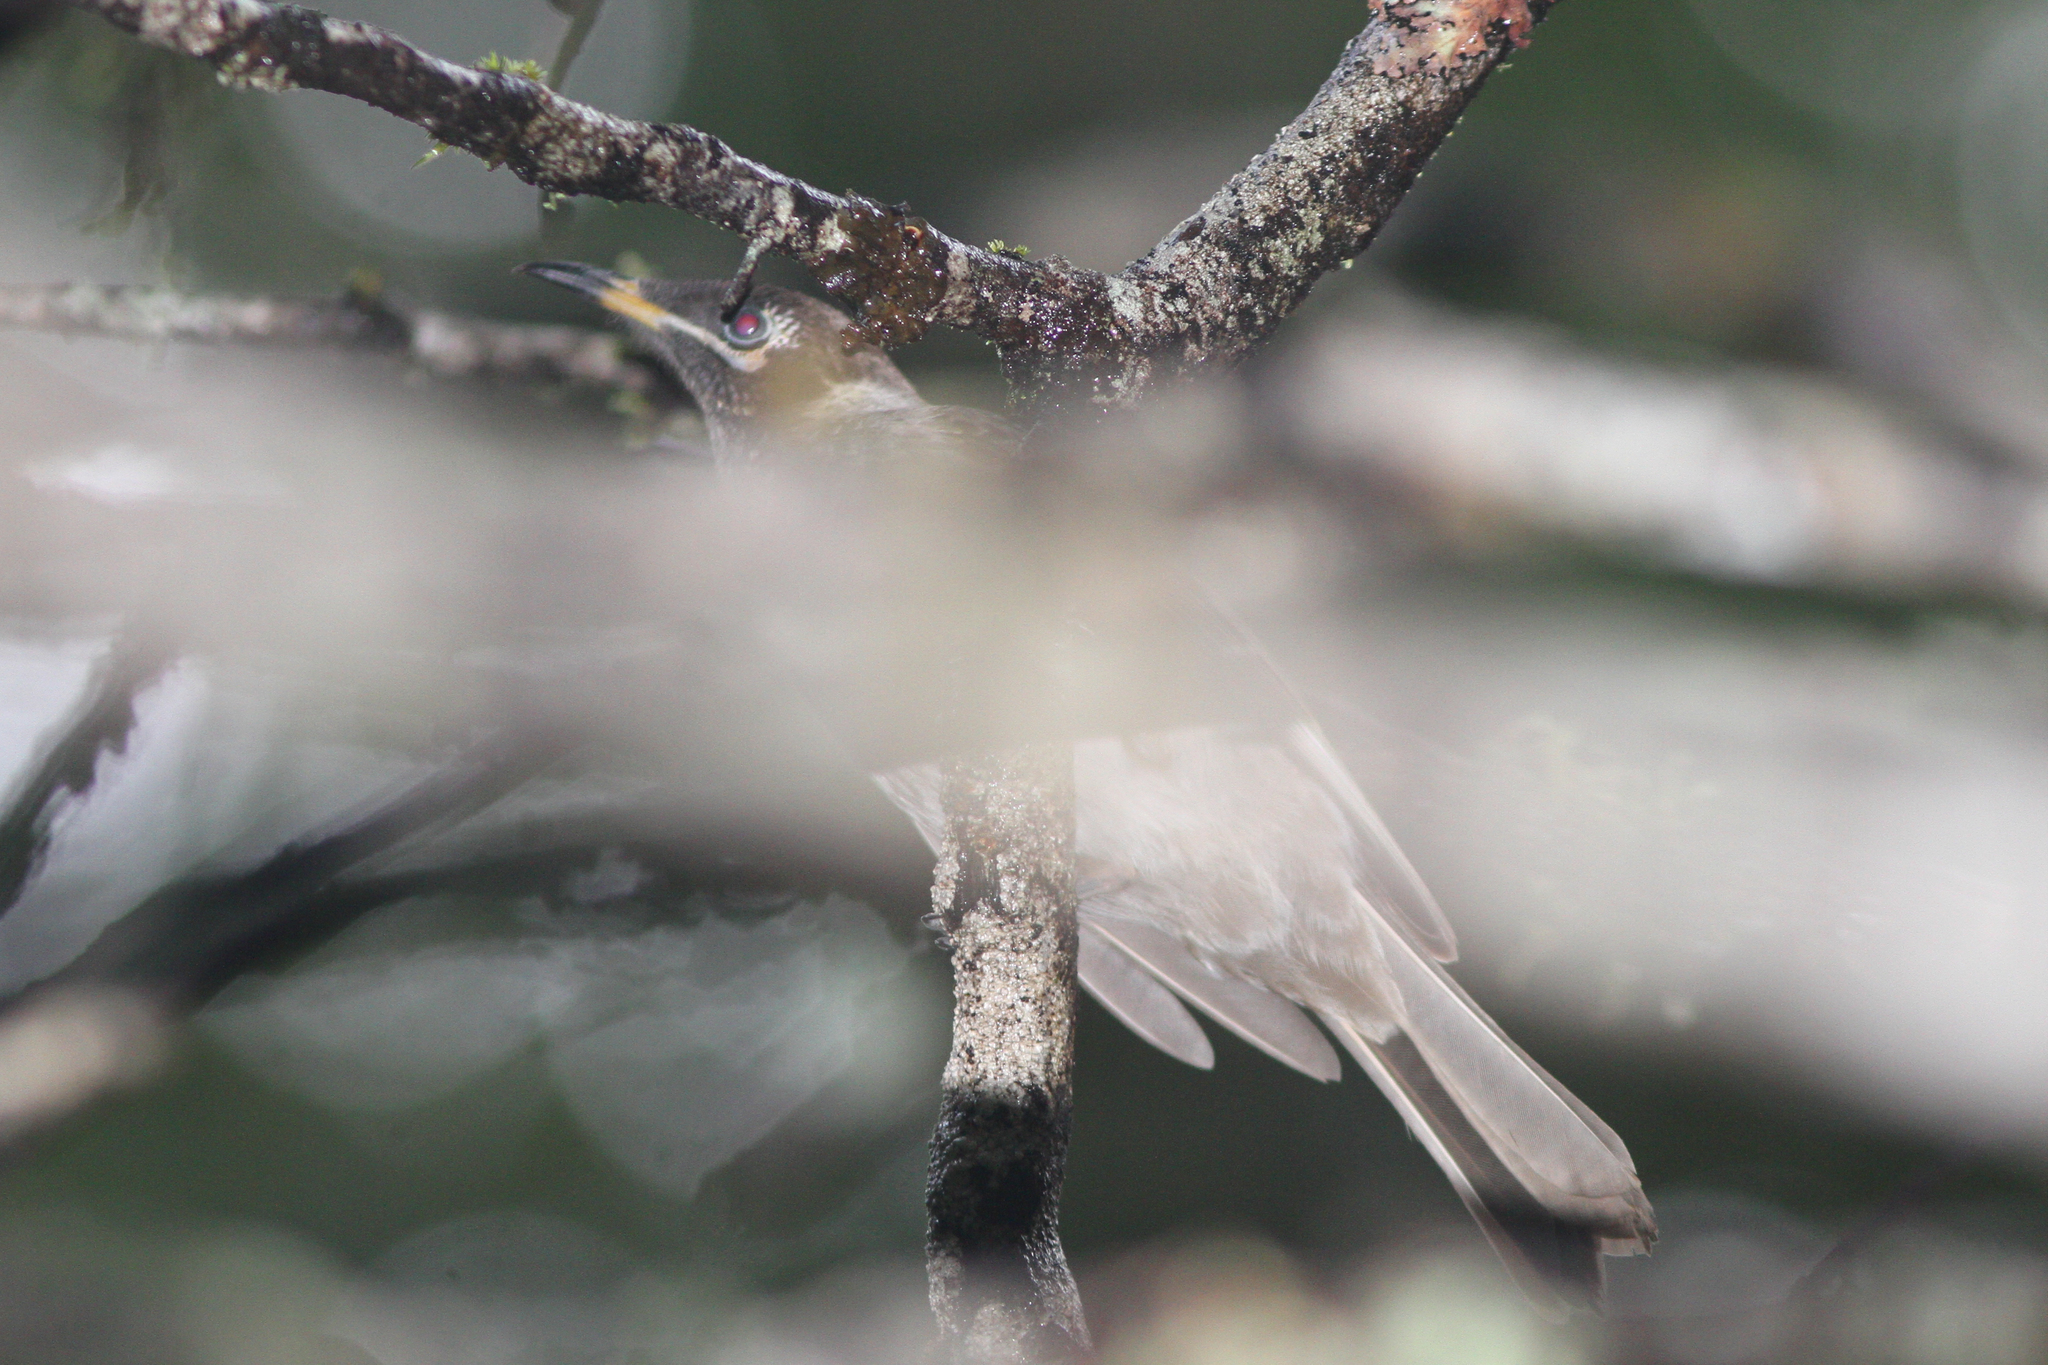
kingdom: Animalia
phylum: Chordata
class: Aves
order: Passeriformes
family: Meliphagidae
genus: Bolemoreus
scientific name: Bolemoreus frenatus
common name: Bridled honeyeater
